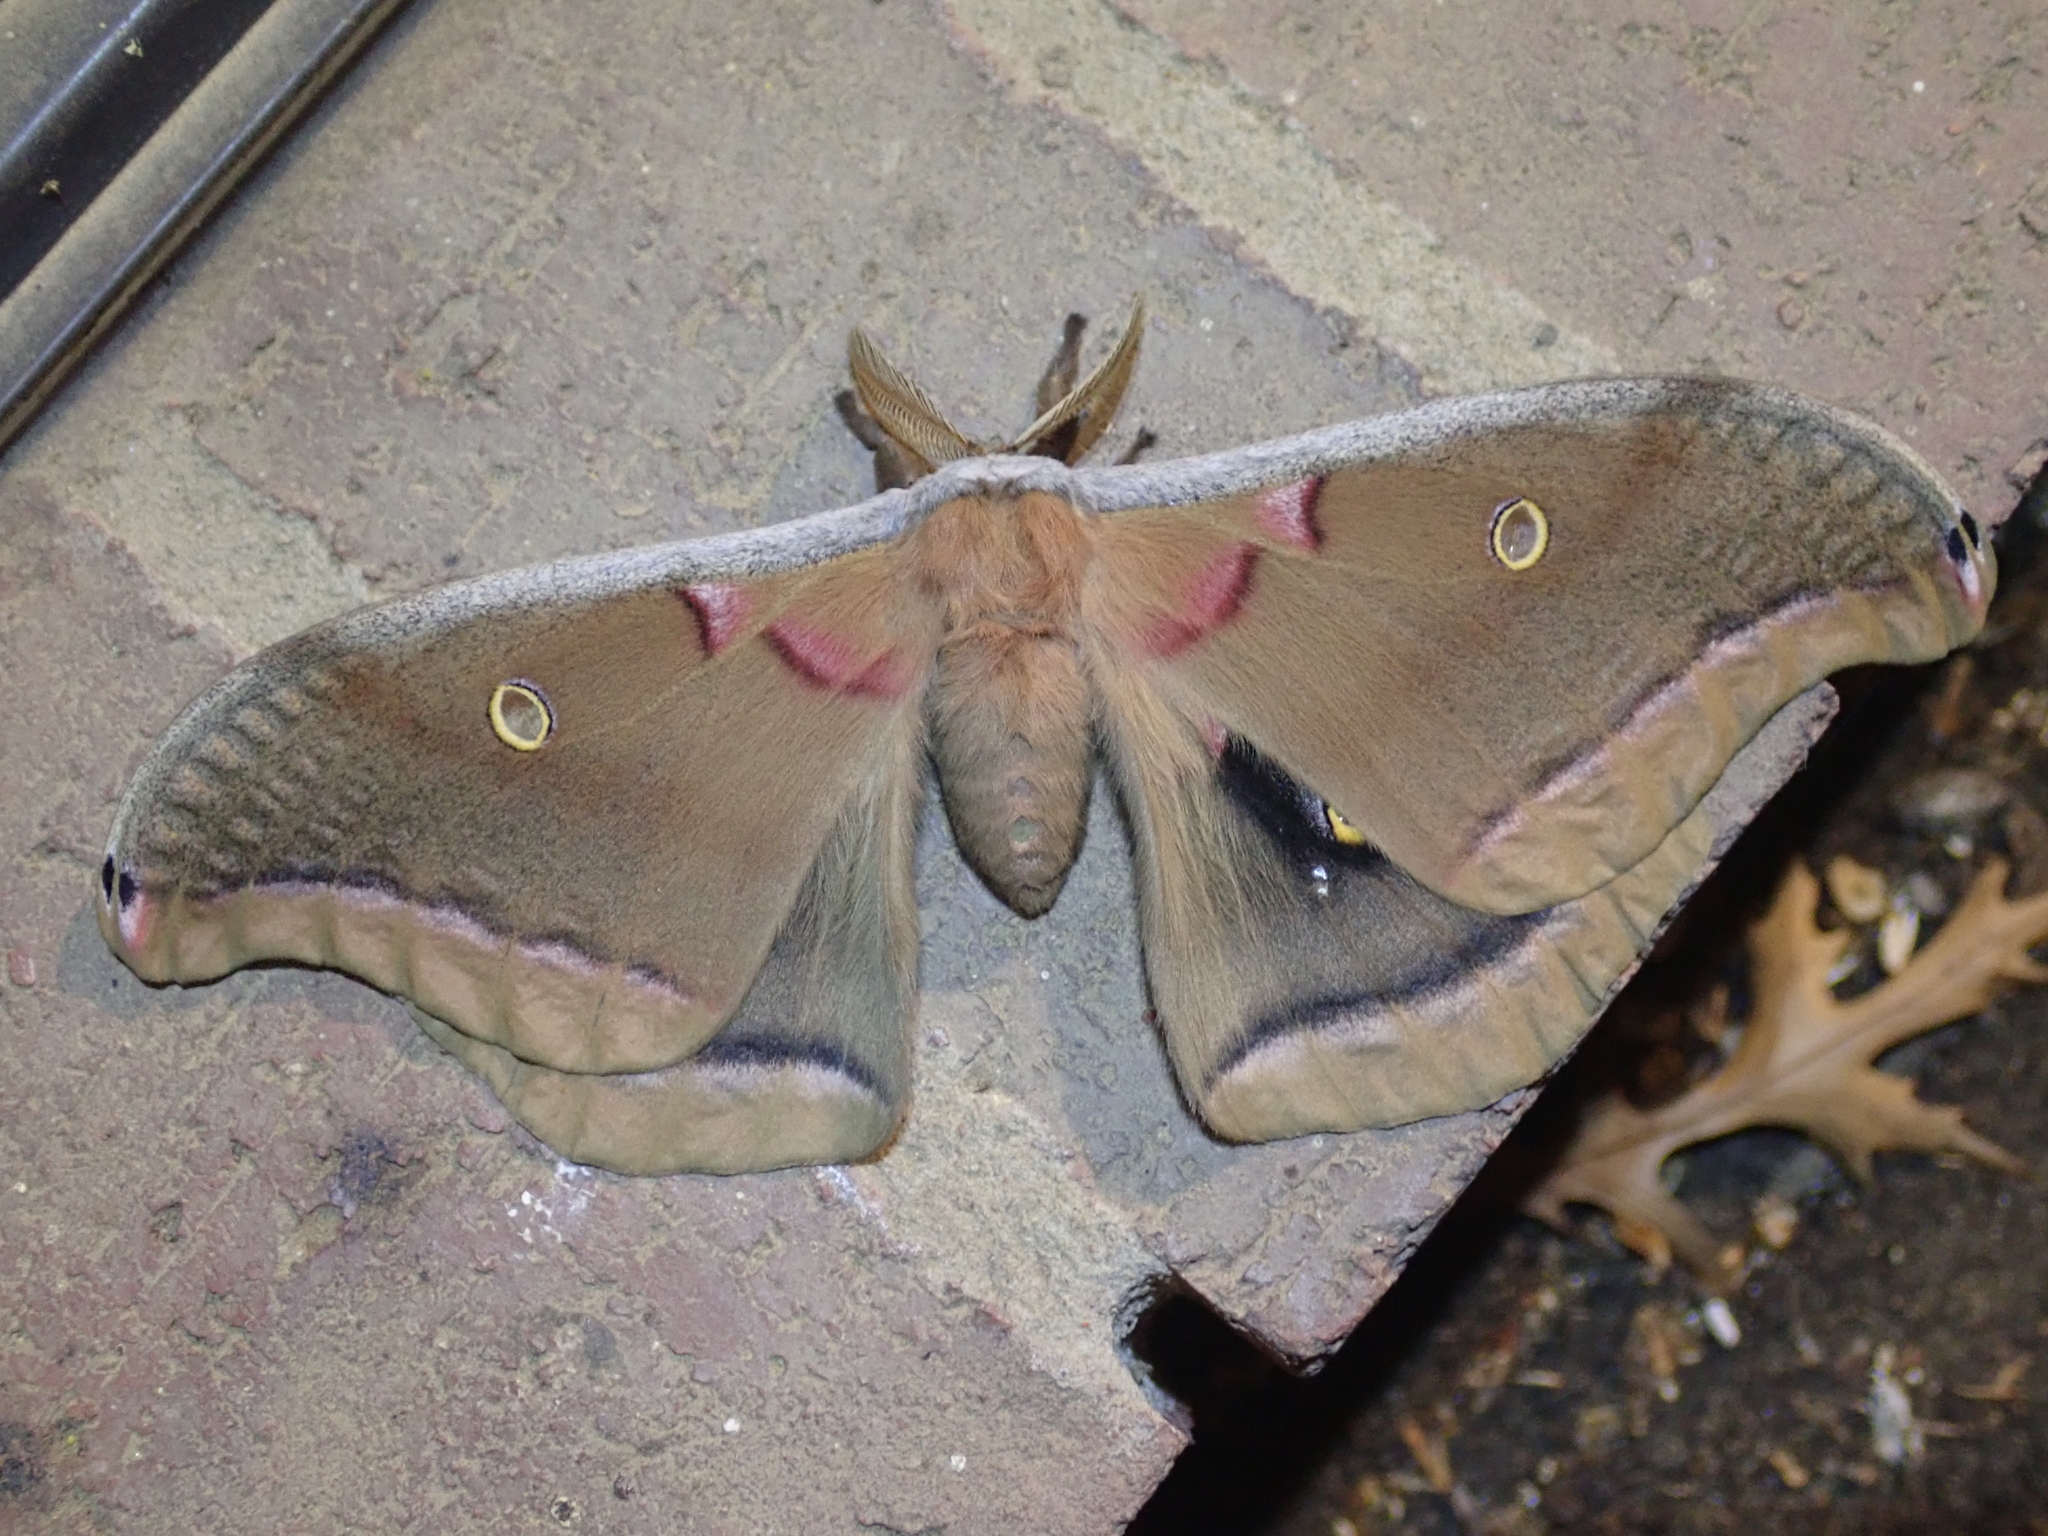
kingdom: Animalia
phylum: Arthropoda
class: Insecta
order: Lepidoptera
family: Saturniidae
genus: Antheraea
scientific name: Antheraea polyphemus
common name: Polyphemus moth
